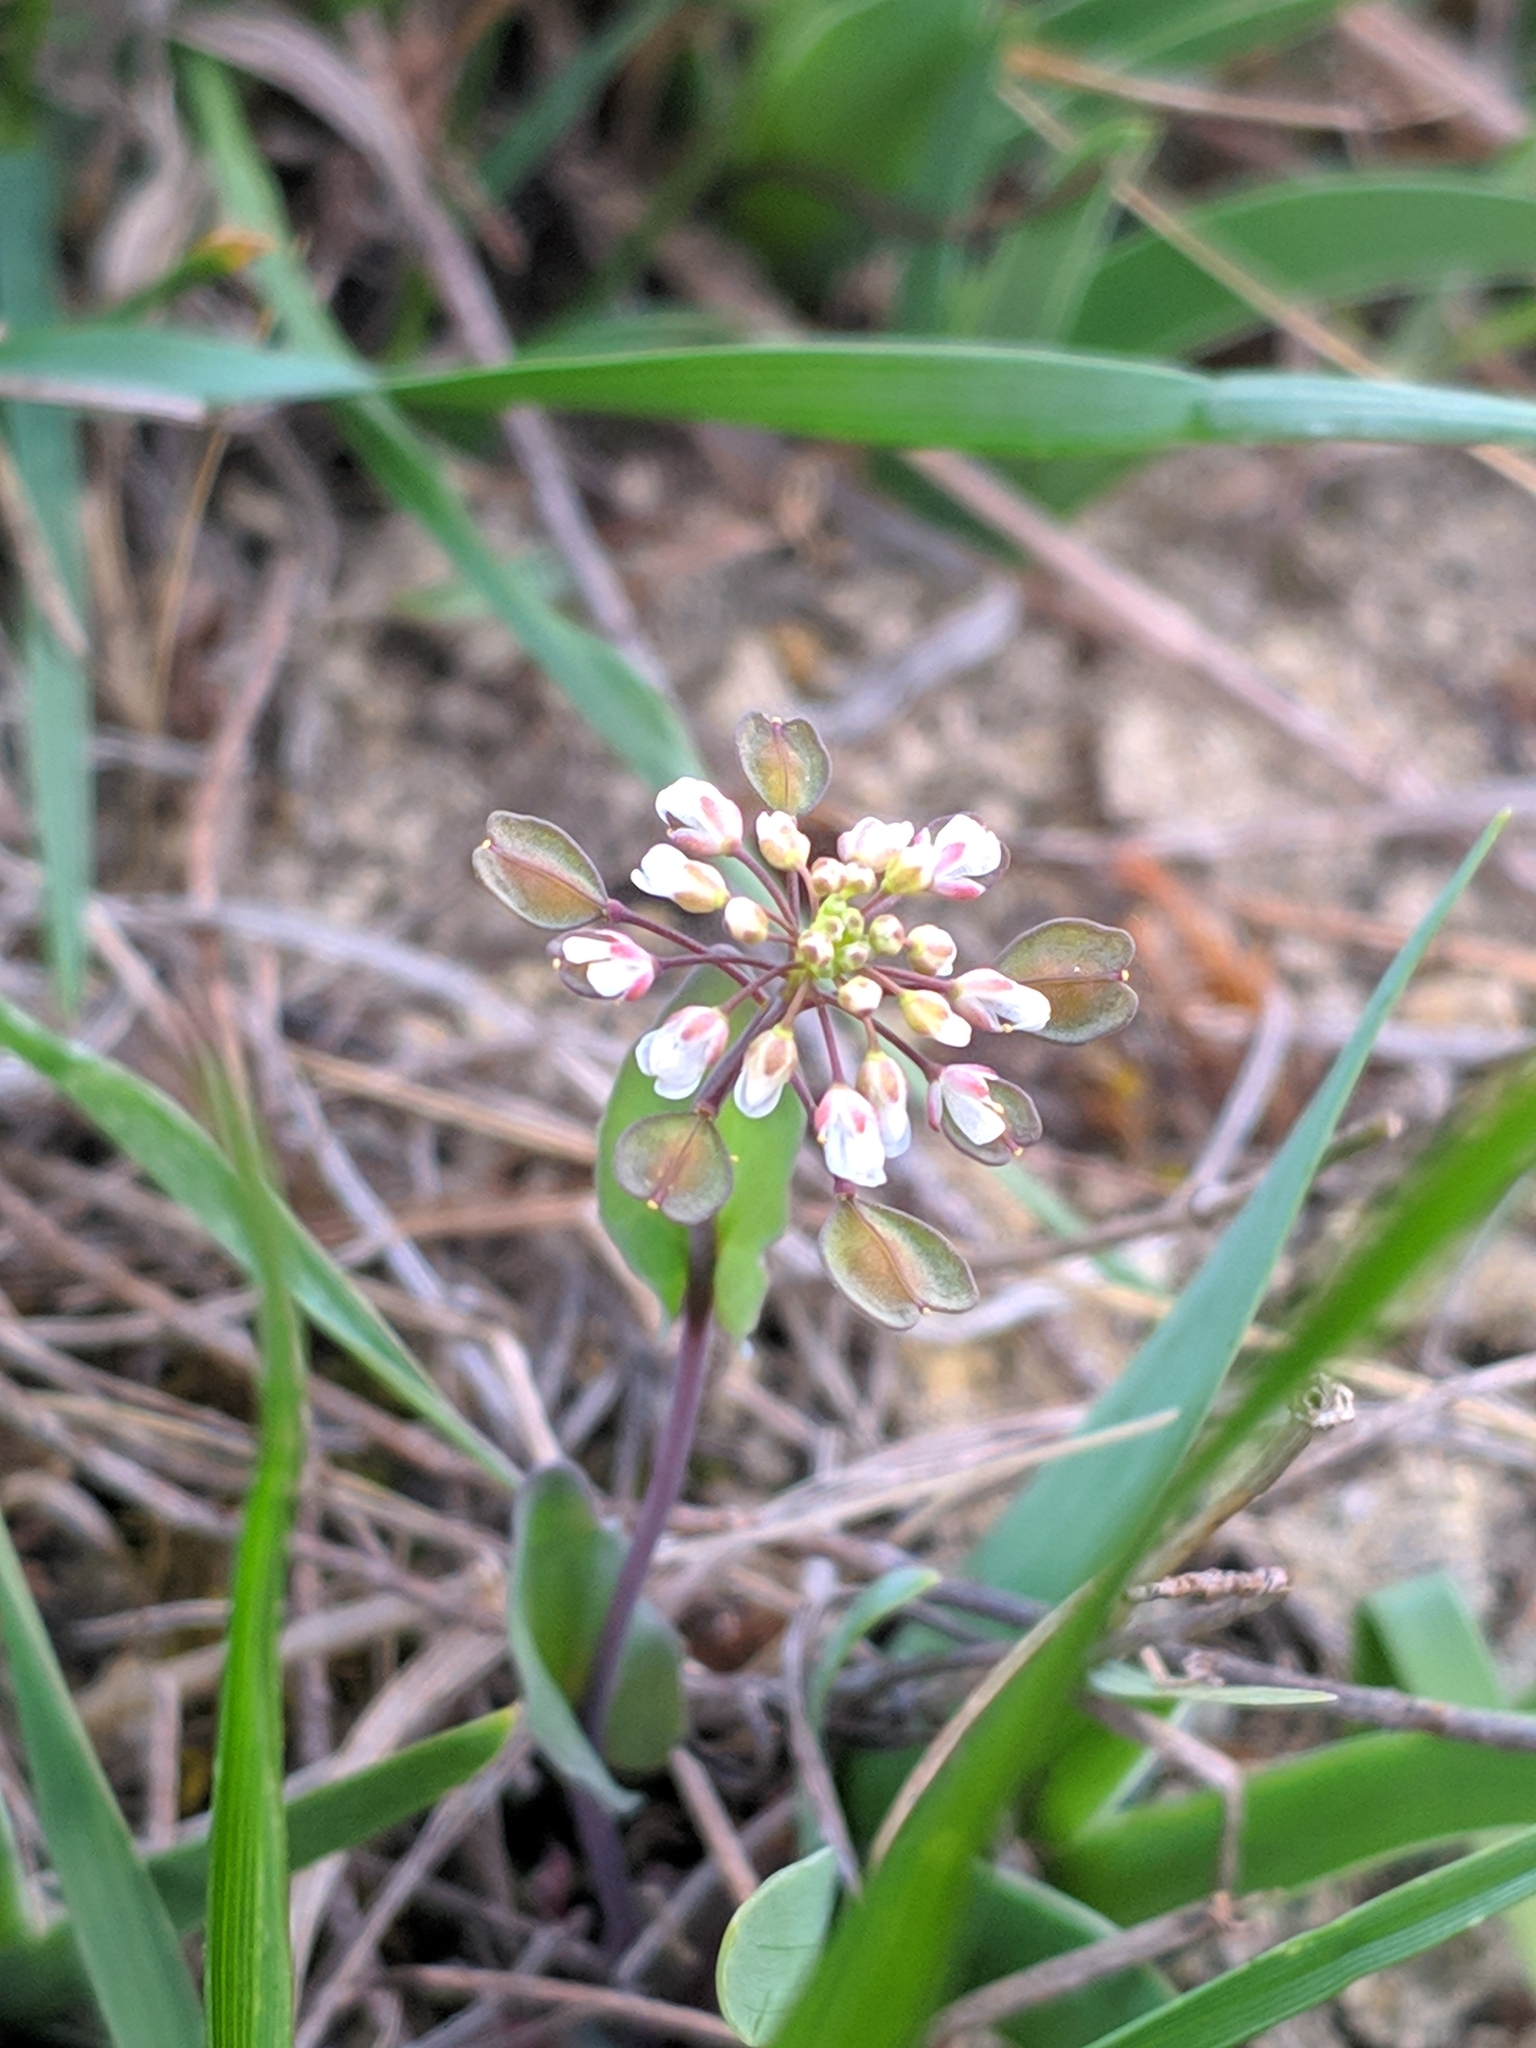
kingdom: Plantae
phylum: Tracheophyta
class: Magnoliopsida
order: Brassicales
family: Brassicaceae
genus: Noccaea
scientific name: Noccaea perfoliata
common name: Perfoliate pennycress
